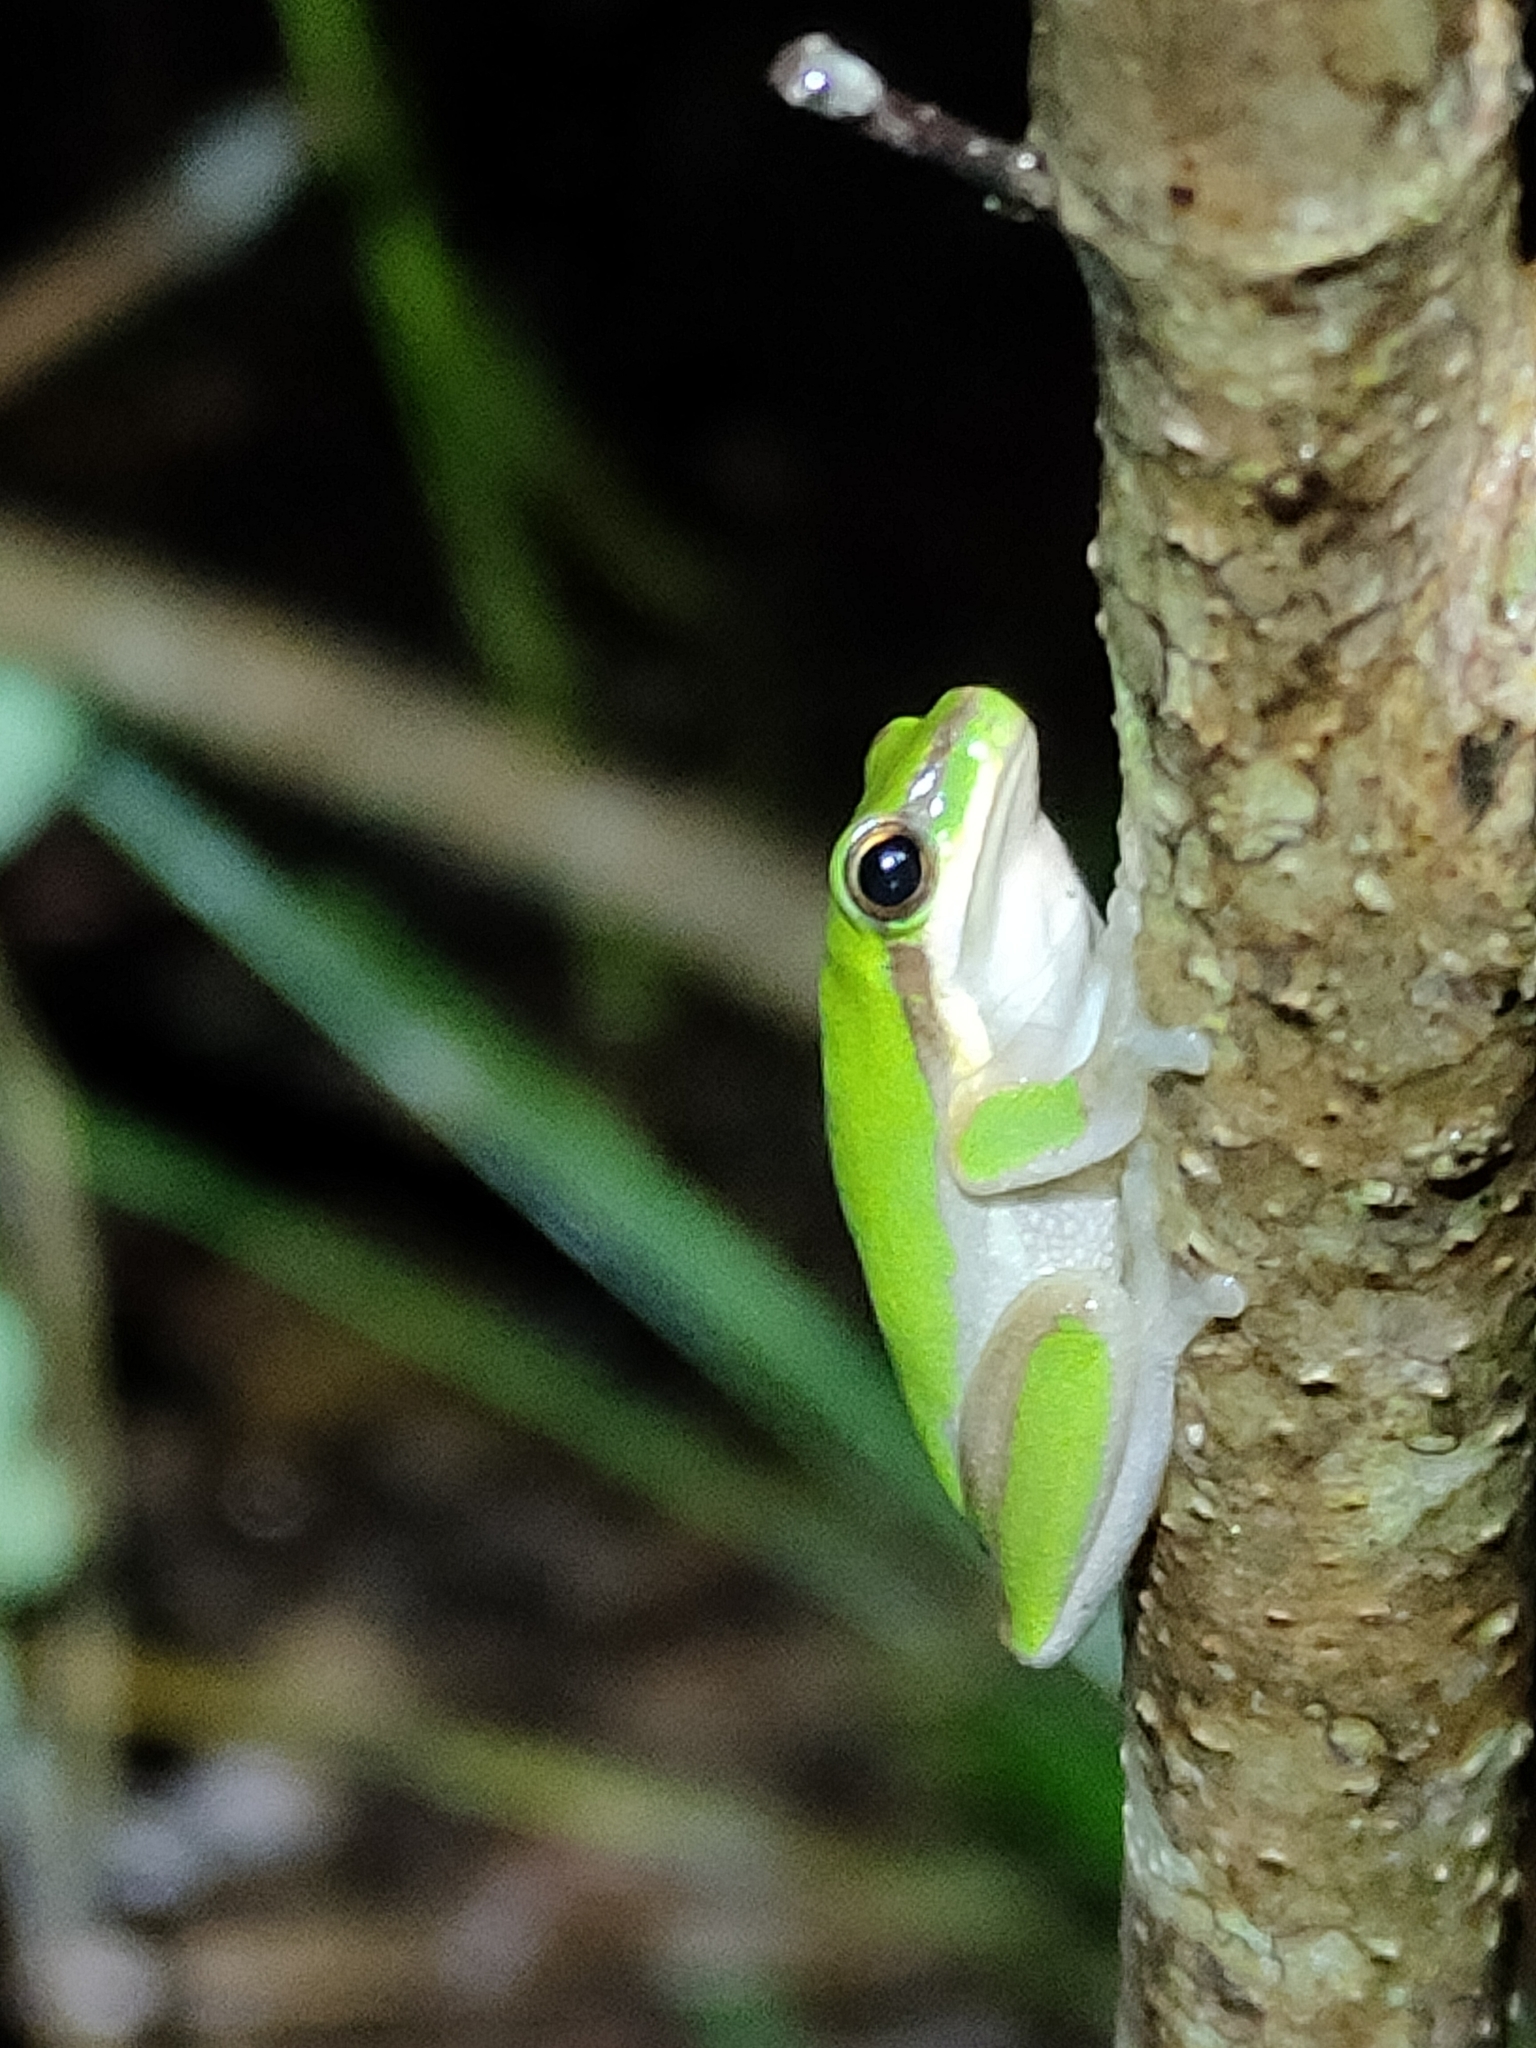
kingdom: Animalia
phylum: Chordata
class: Amphibia
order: Anura
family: Pelodryadidae
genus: Litoria
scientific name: Litoria fallax
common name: Eastern dwarf treefrog
